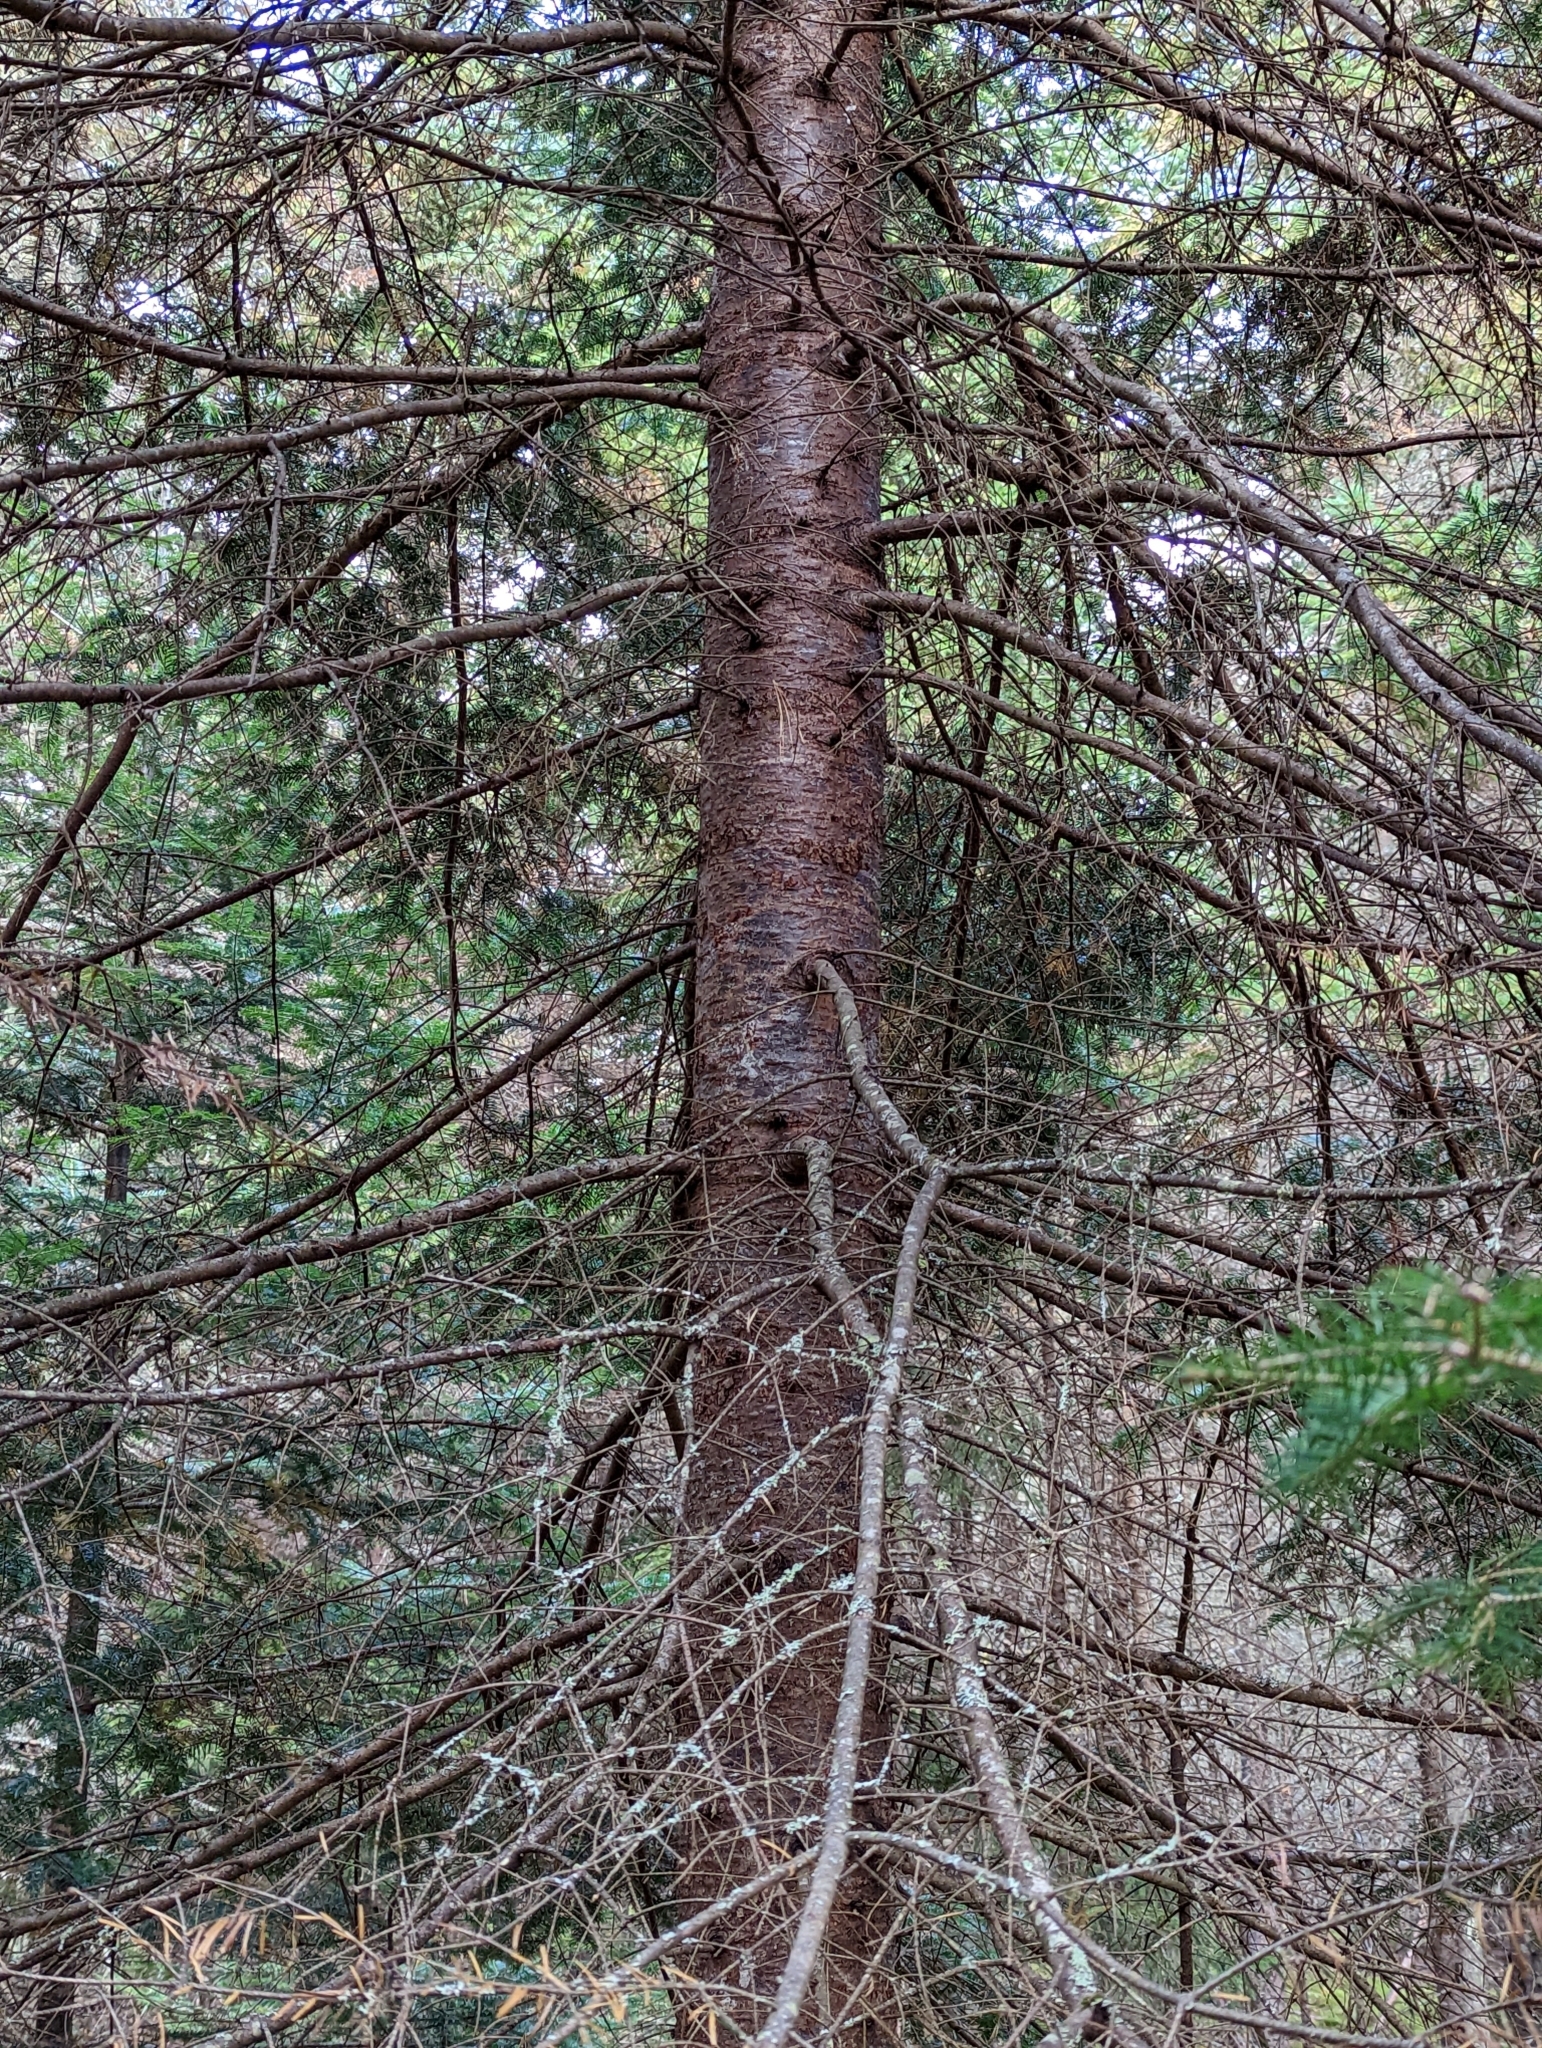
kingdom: Plantae
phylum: Tracheophyta
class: Pinopsida
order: Pinales
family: Pinaceae
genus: Abies
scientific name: Abies balsamea
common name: Balsam fir
